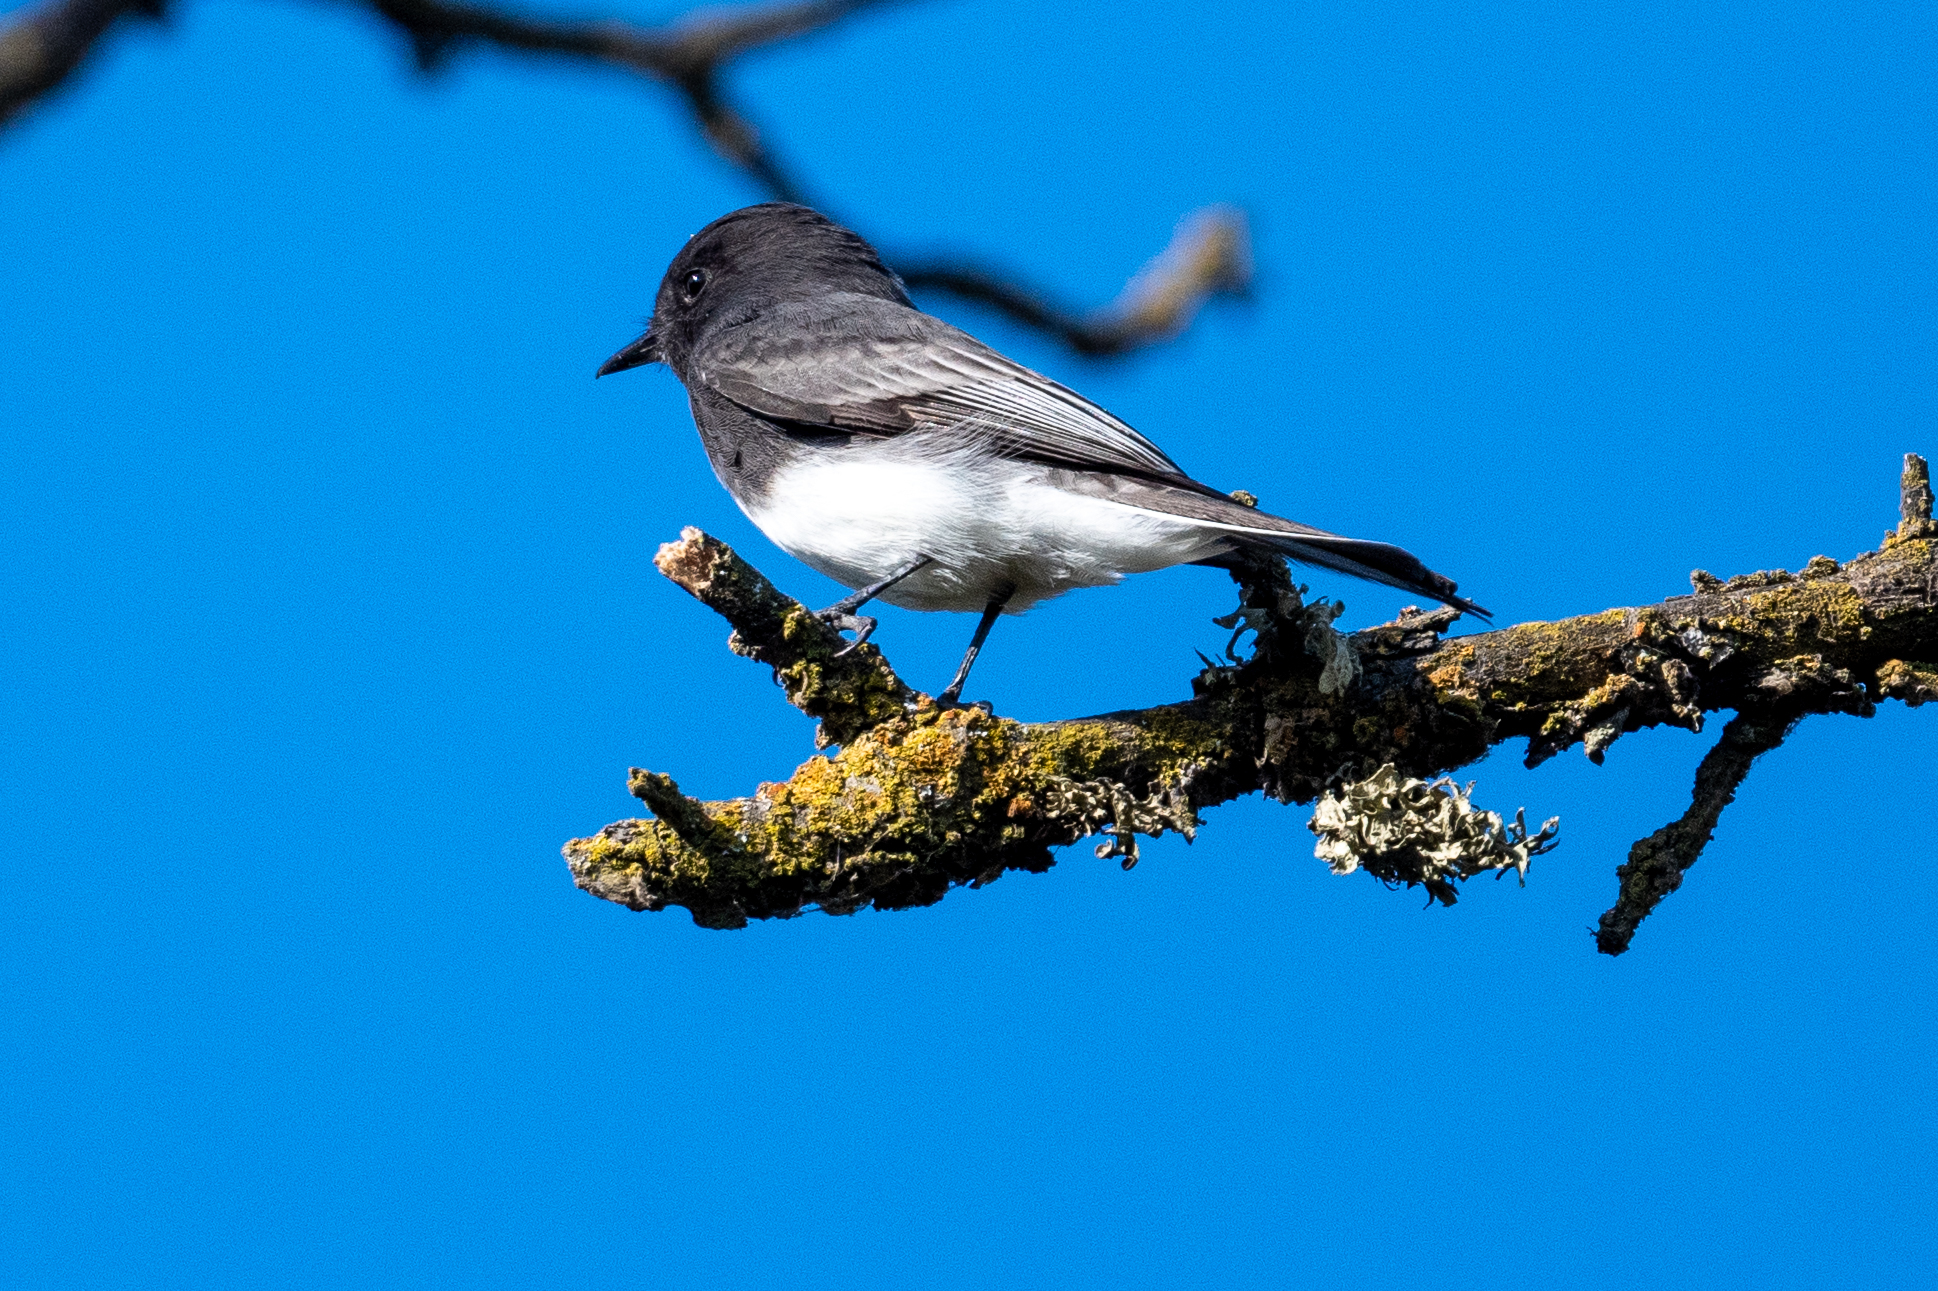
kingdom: Animalia
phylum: Chordata
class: Aves
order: Passeriformes
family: Tyrannidae
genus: Sayornis
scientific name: Sayornis nigricans
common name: Black phoebe
